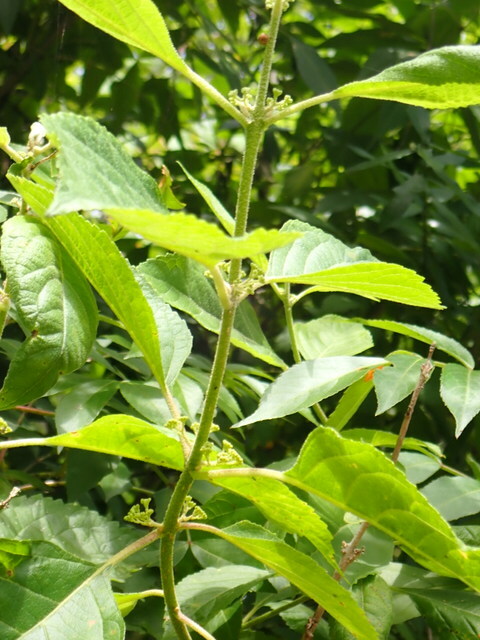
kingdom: Plantae
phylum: Tracheophyta
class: Magnoliopsida
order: Lamiales
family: Lamiaceae
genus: Callicarpa
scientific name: Callicarpa americana
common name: American beautyberry
